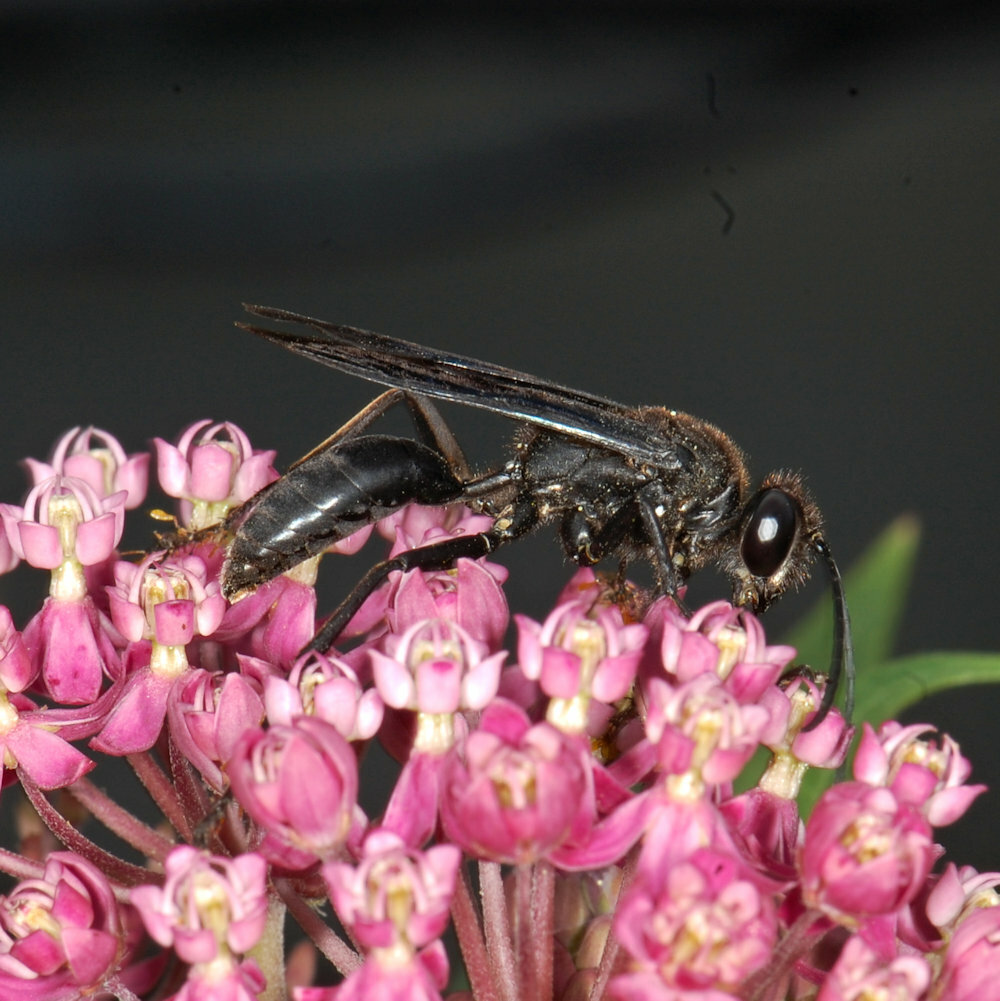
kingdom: Animalia
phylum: Arthropoda
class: Insecta
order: Hymenoptera
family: Sphecidae
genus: Sphex
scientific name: Sphex pensylvanicus
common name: Great black digger wasp
